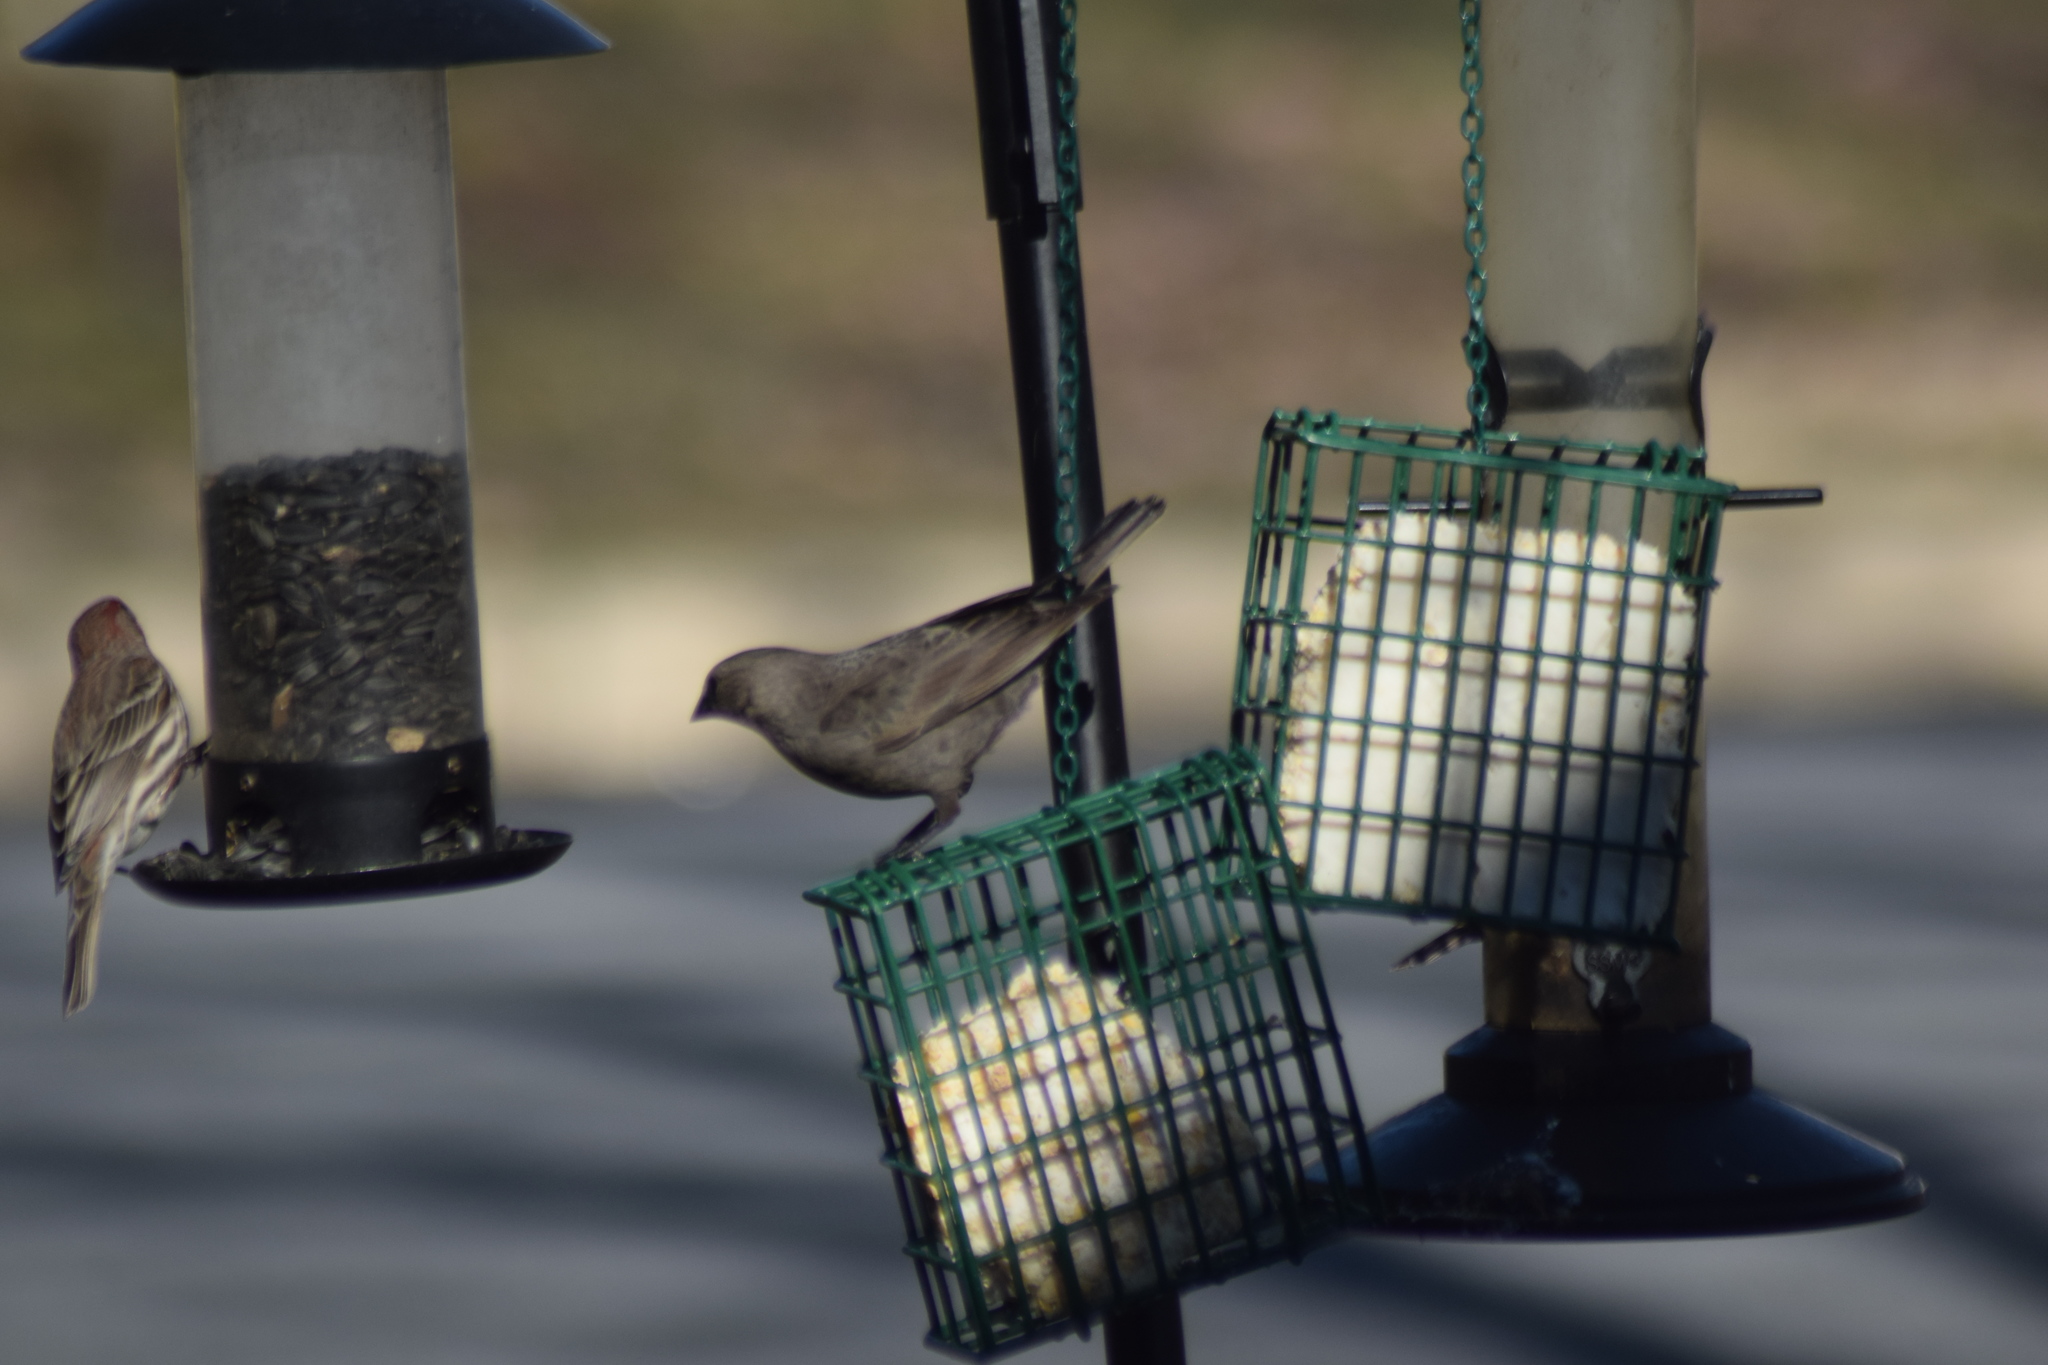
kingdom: Animalia
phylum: Chordata
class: Aves
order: Passeriformes
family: Icteridae
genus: Molothrus
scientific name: Molothrus ater
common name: Brown-headed cowbird
